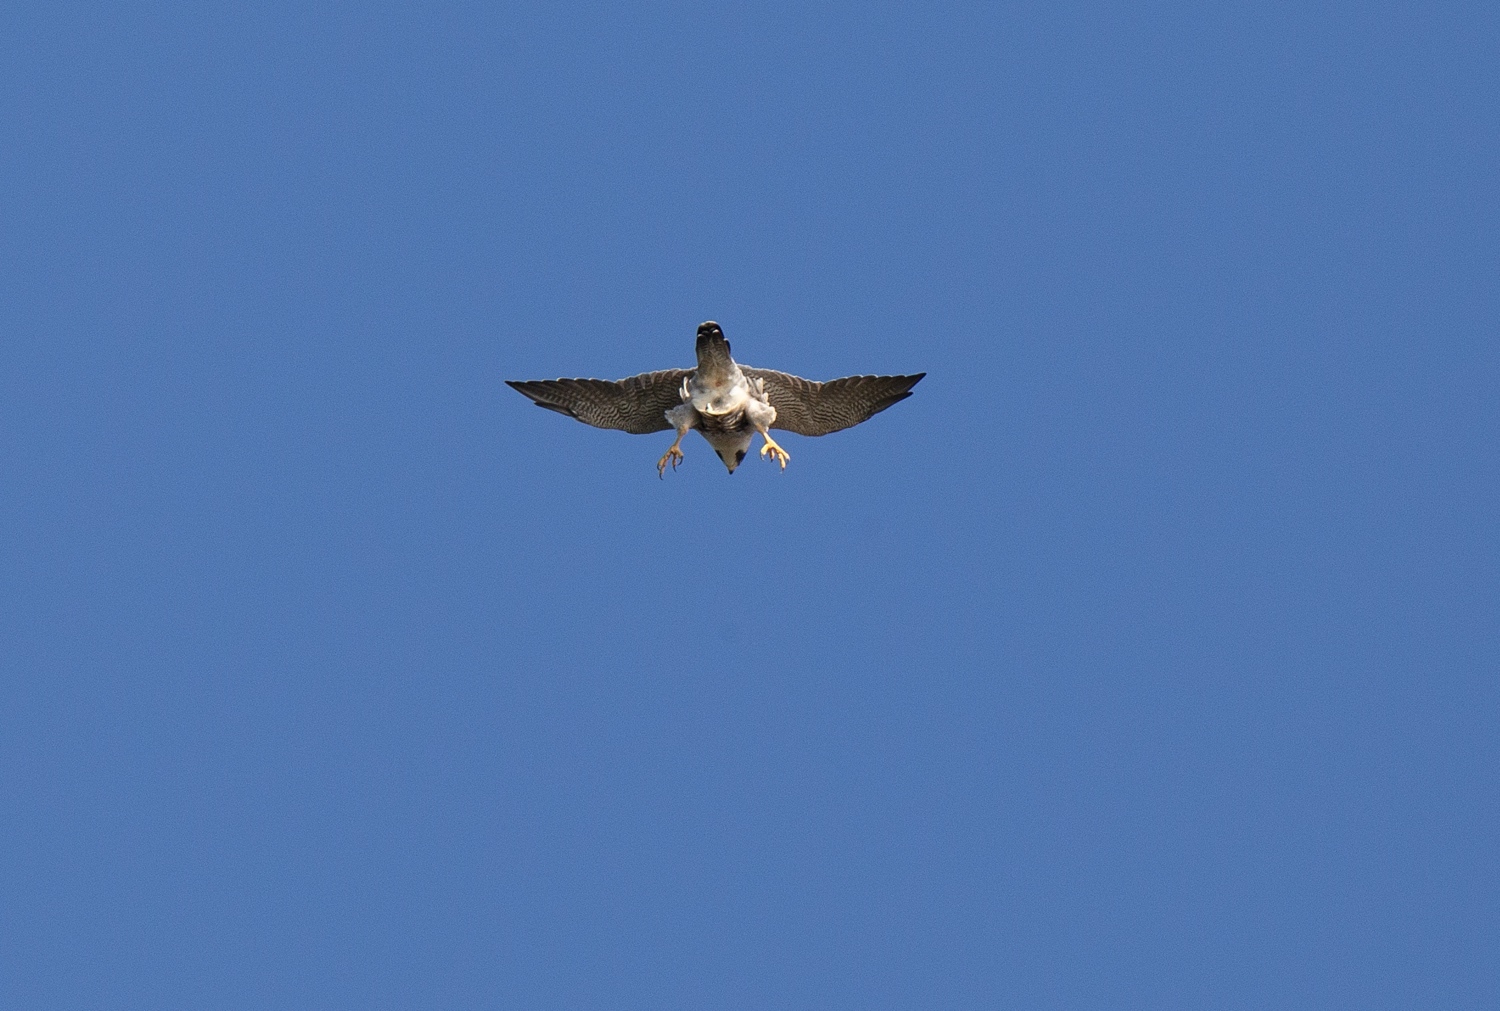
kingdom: Animalia
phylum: Chordata
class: Aves
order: Falconiformes
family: Falconidae
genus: Falco
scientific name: Falco peregrinus
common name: Peregrine falcon
